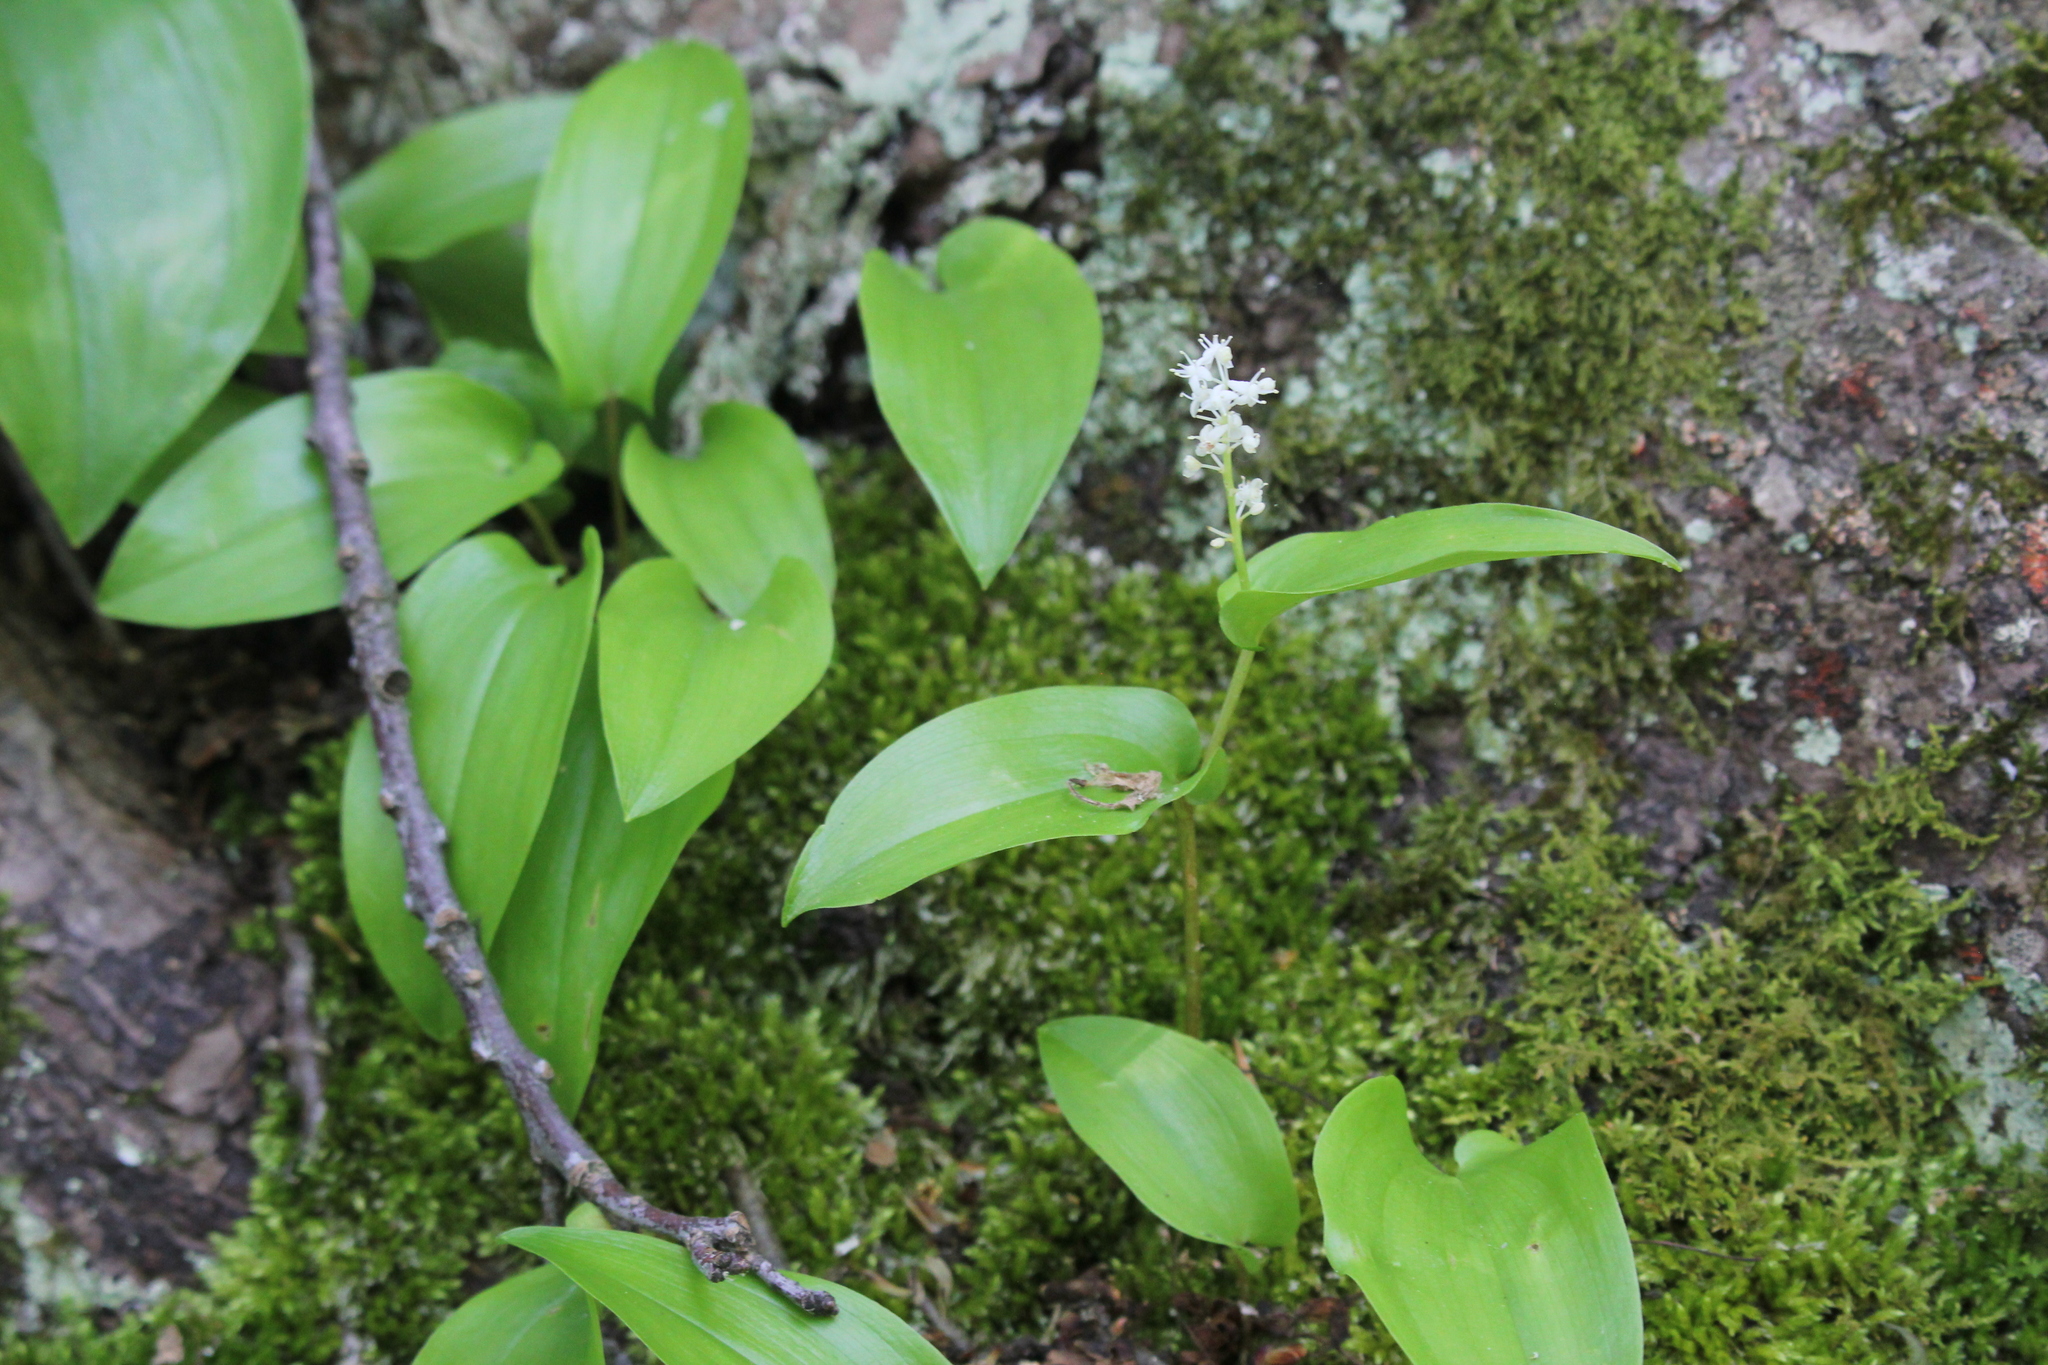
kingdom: Plantae
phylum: Tracheophyta
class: Liliopsida
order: Asparagales
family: Asparagaceae
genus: Maianthemum
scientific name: Maianthemum canadense
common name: False lily-of-the-valley
